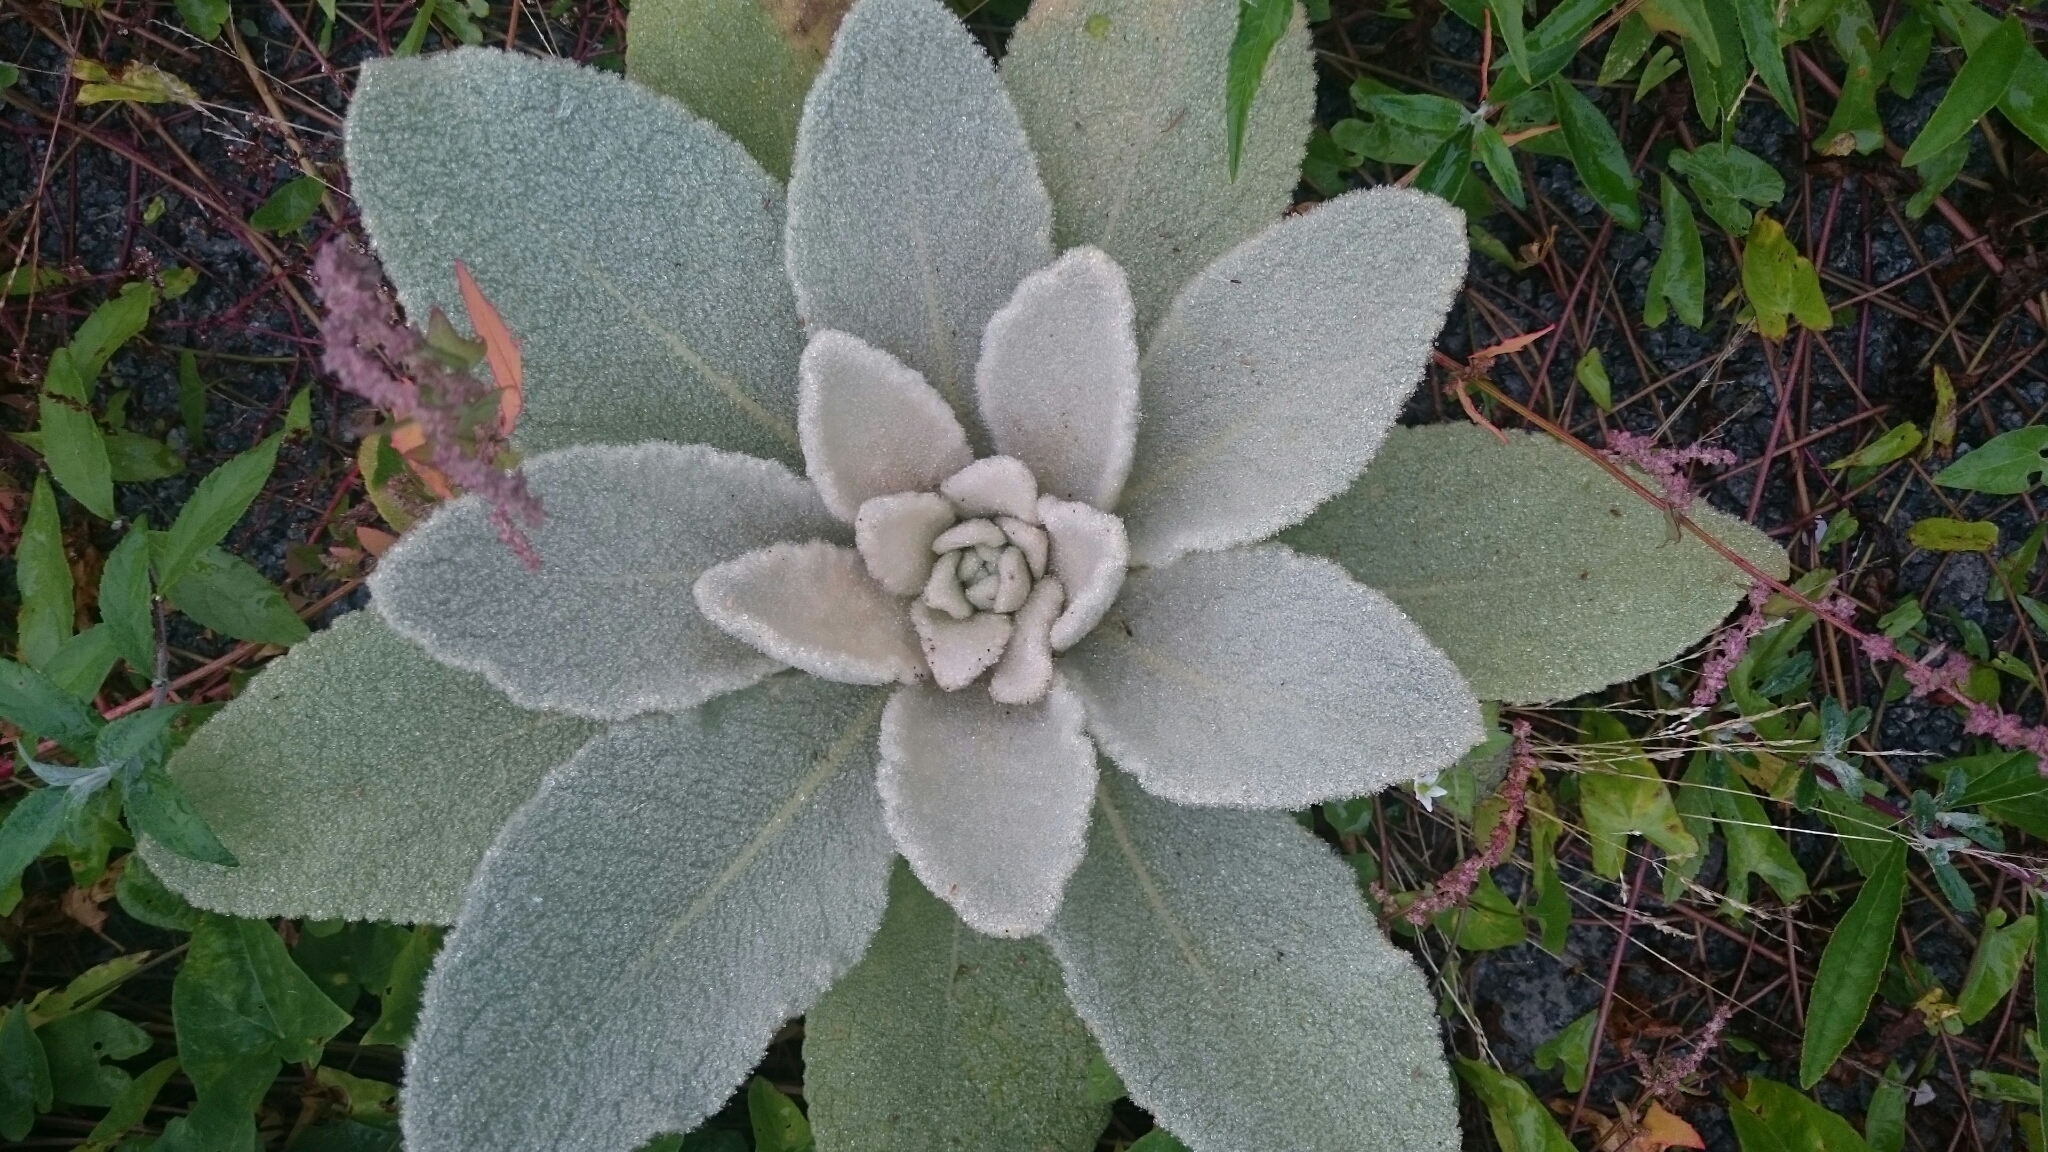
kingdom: Plantae
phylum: Tracheophyta
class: Magnoliopsida
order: Lamiales
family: Scrophulariaceae
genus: Verbascum
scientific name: Verbascum thapsus
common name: Common mullein
